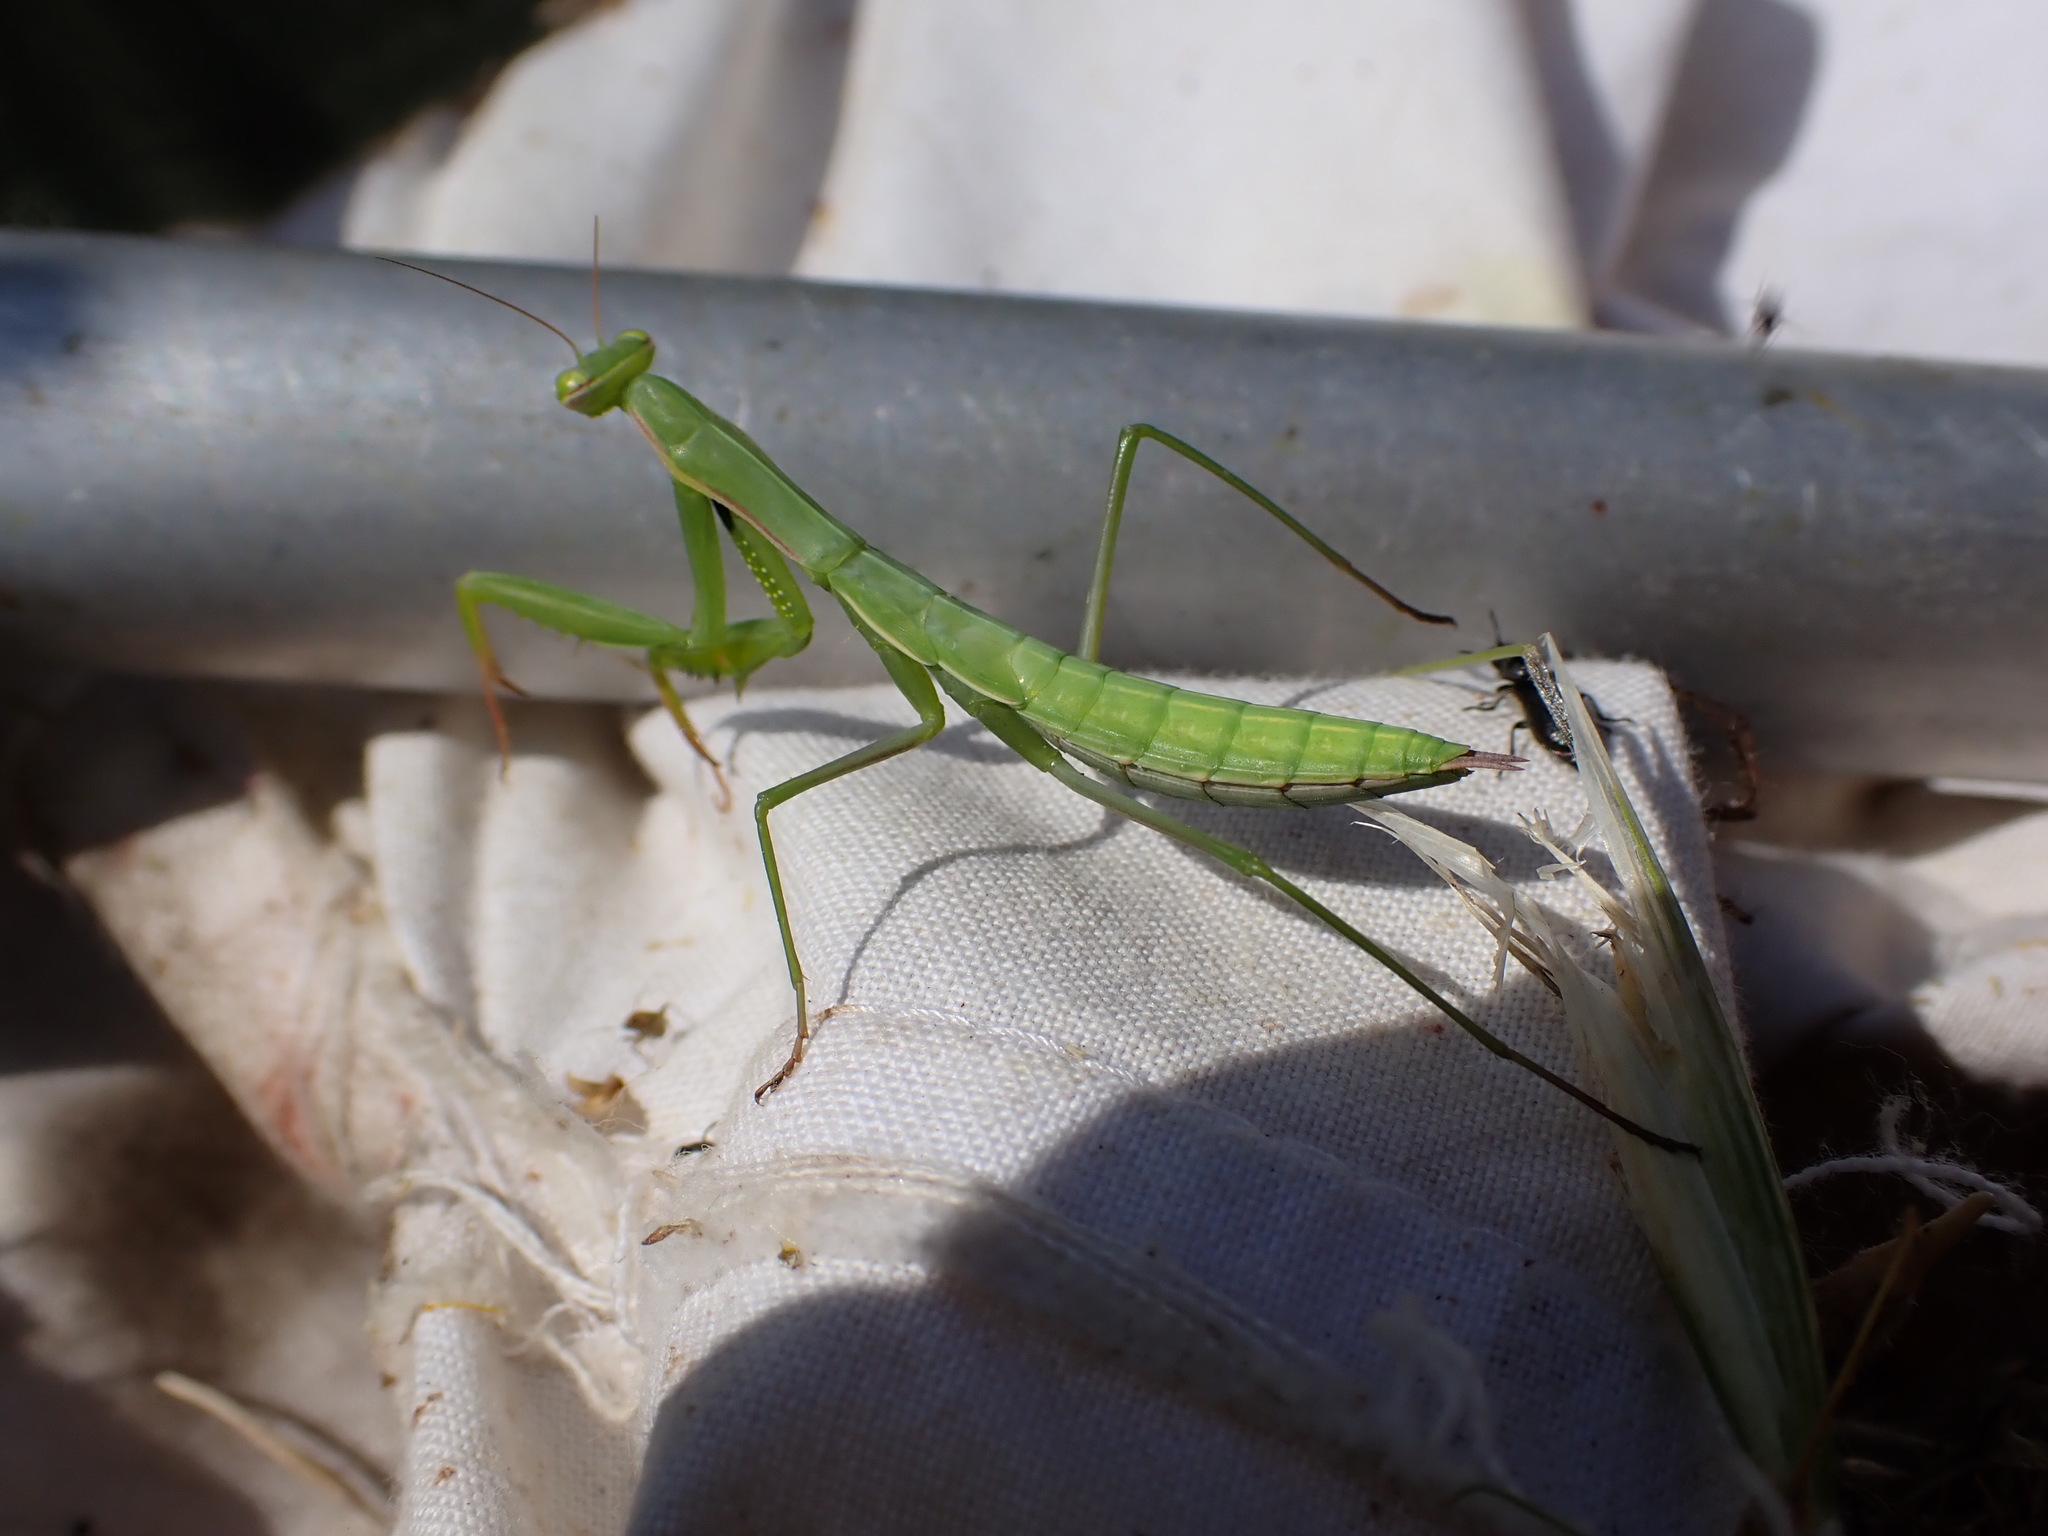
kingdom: Animalia
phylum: Arthropoda
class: Insecta
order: Mantodea
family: Mantidae
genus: Mantis
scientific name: Mantis religiosa
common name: Praying mantis
